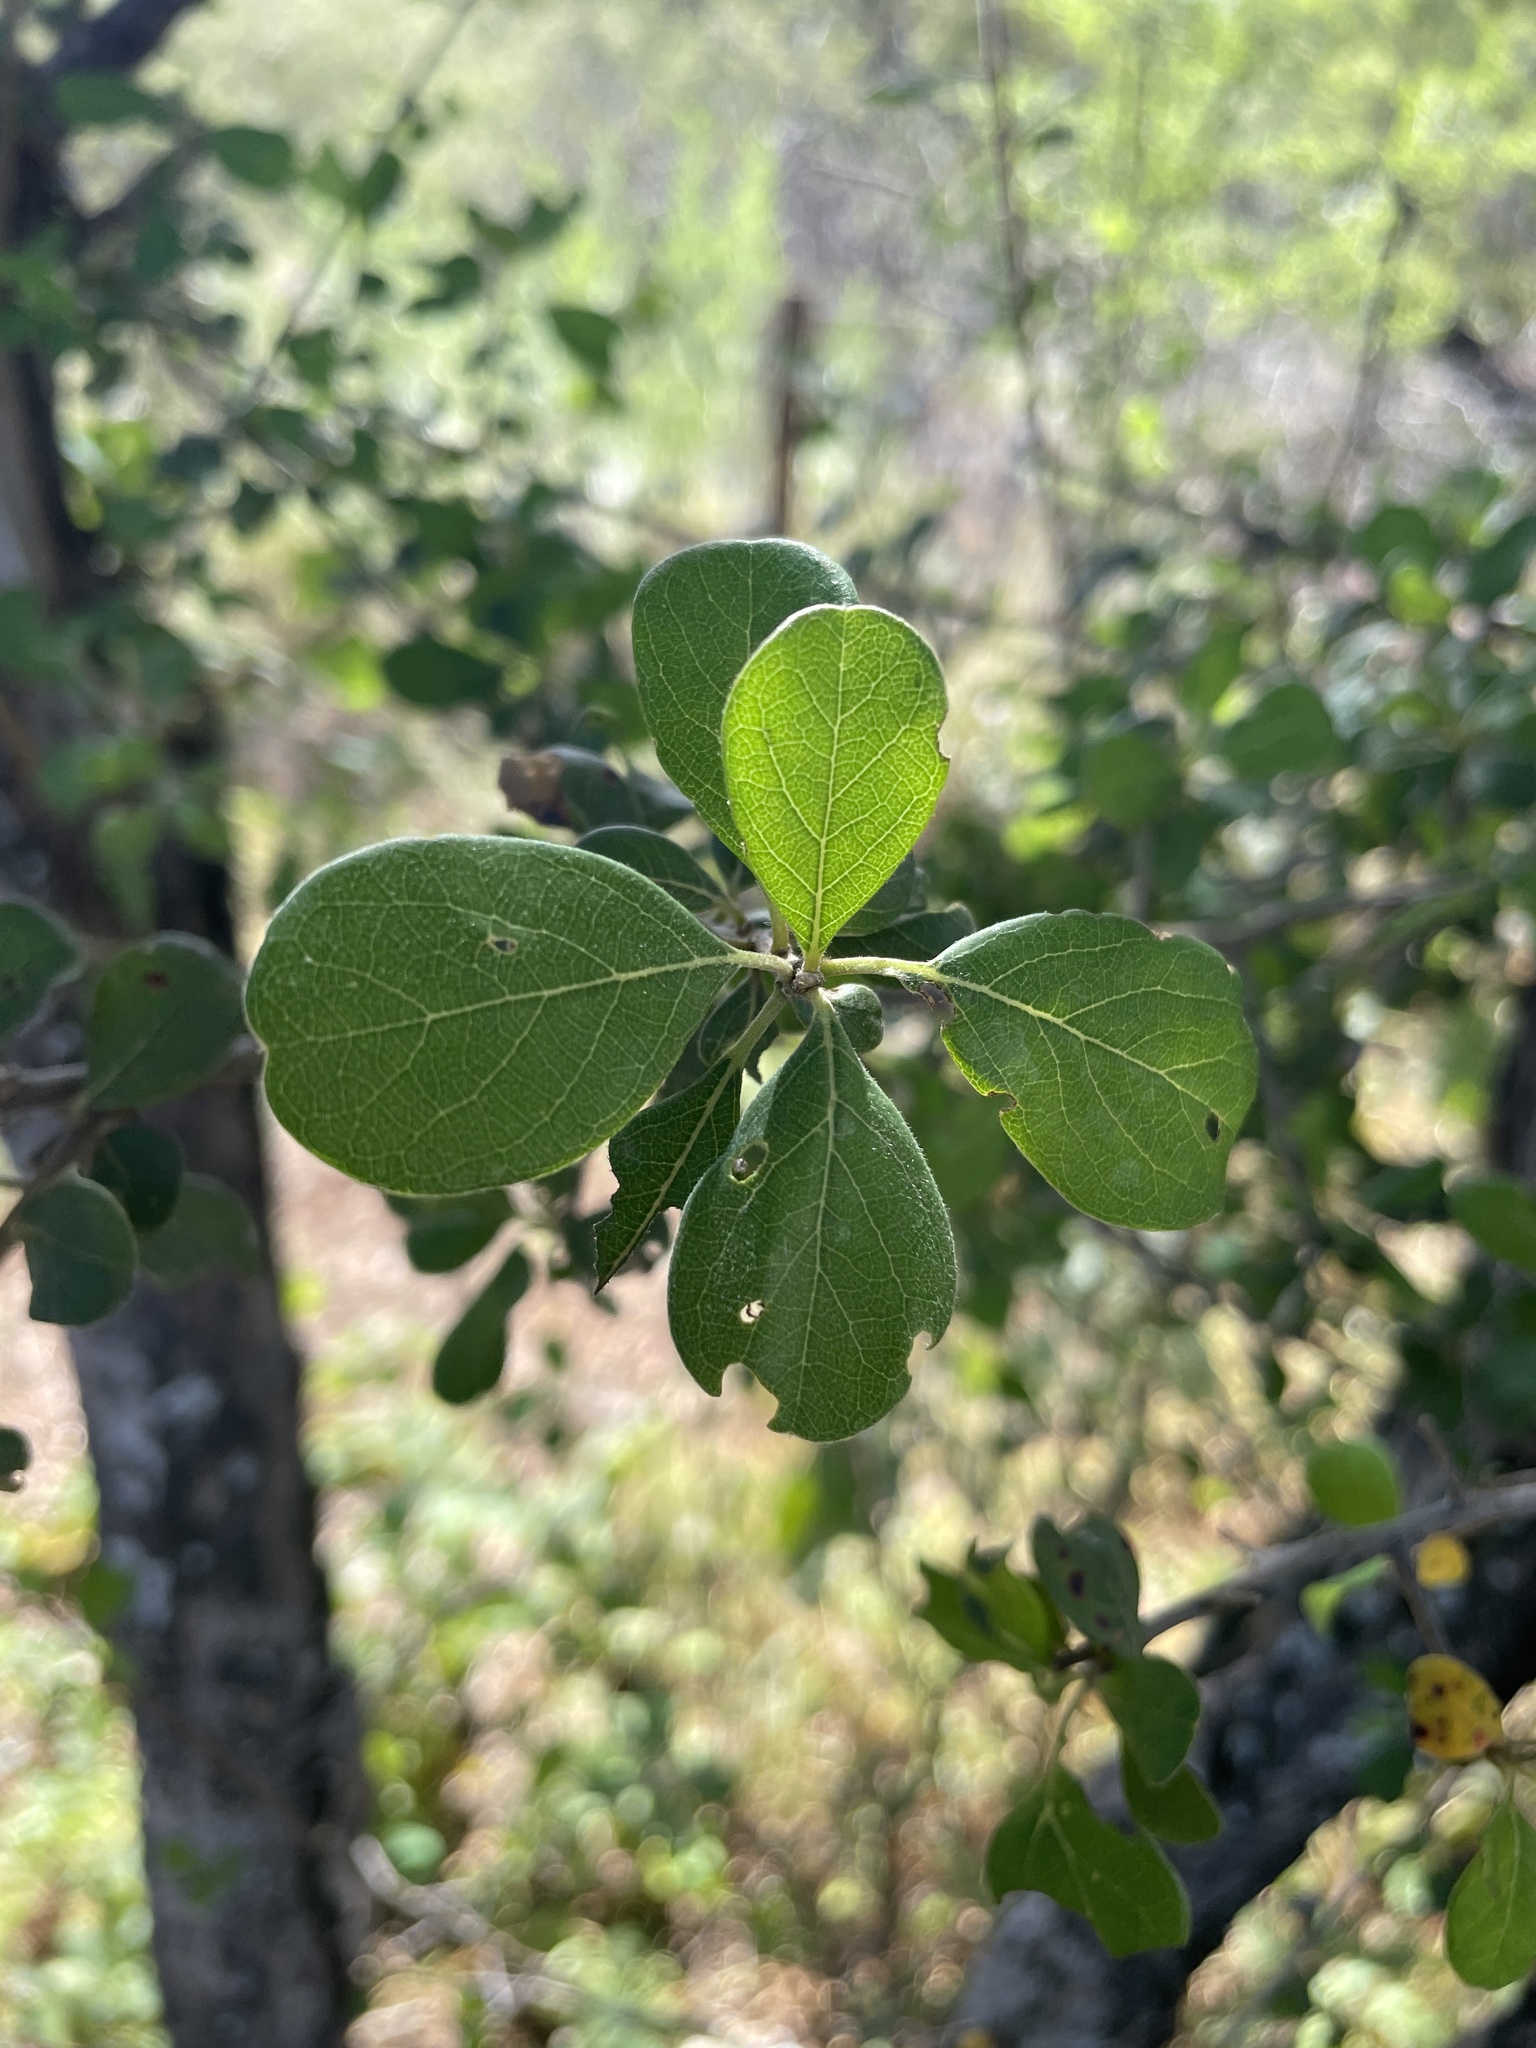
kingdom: Plantae
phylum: Tracheophyta
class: Magnoliopsida
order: Myrtales
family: Combretaceae
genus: Terminalia
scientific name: Terminalia prunioides
